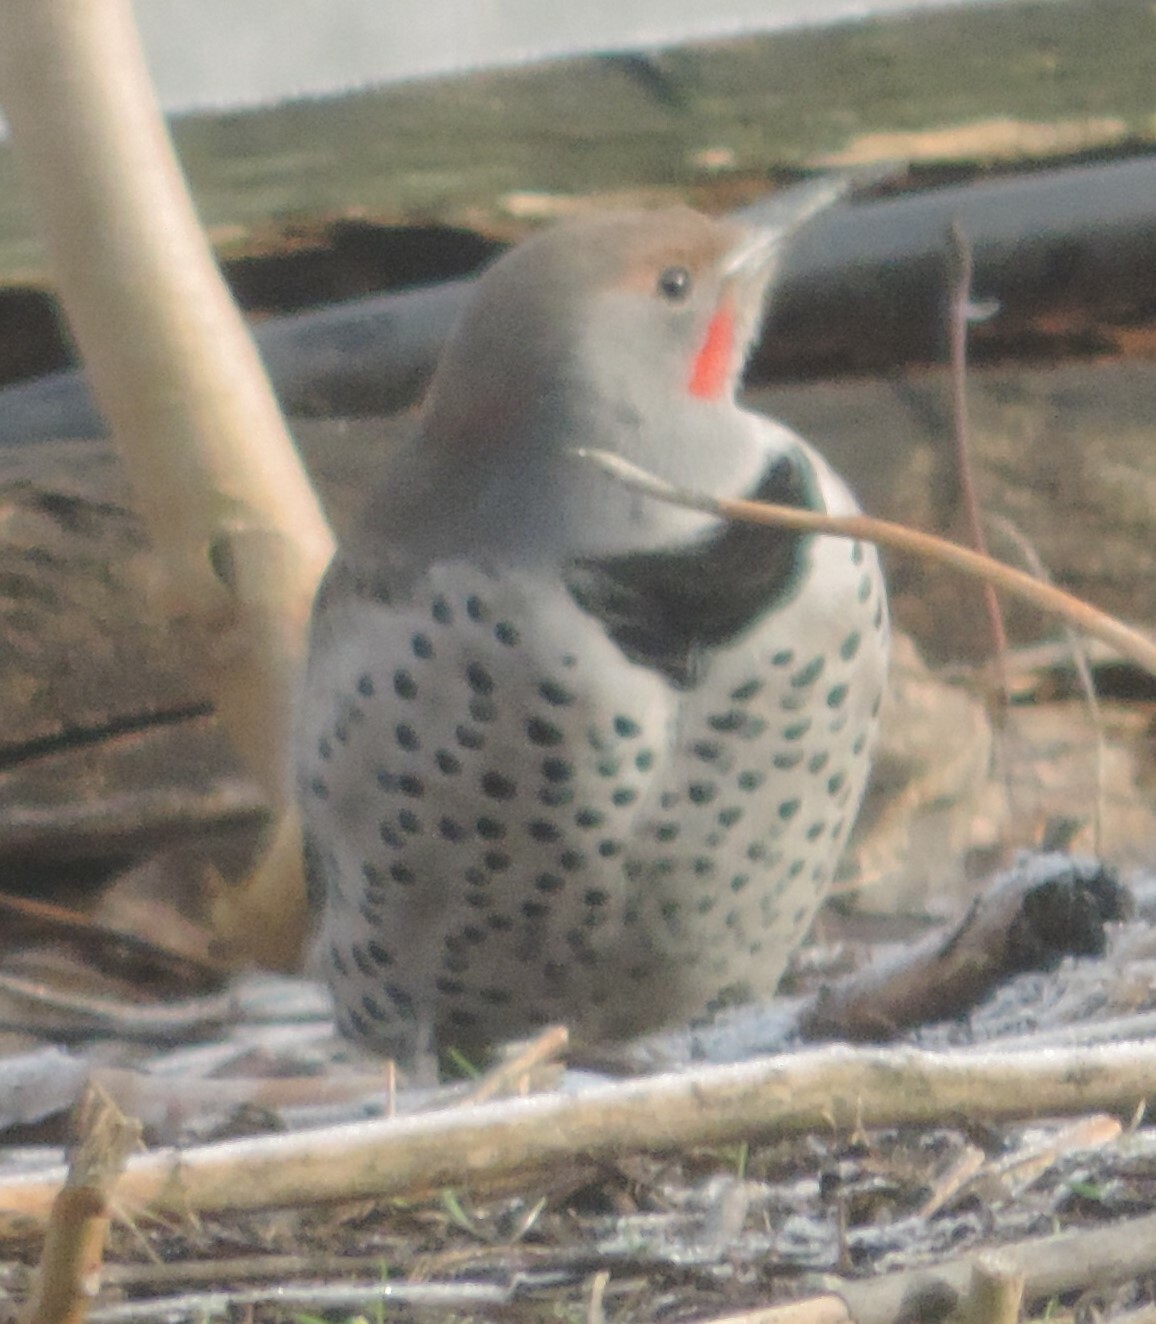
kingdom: Animalia
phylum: Chordata
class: Aves
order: Piciformes
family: Picidae
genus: Colaptes
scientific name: Colaptes auratus
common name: Northern flicker
